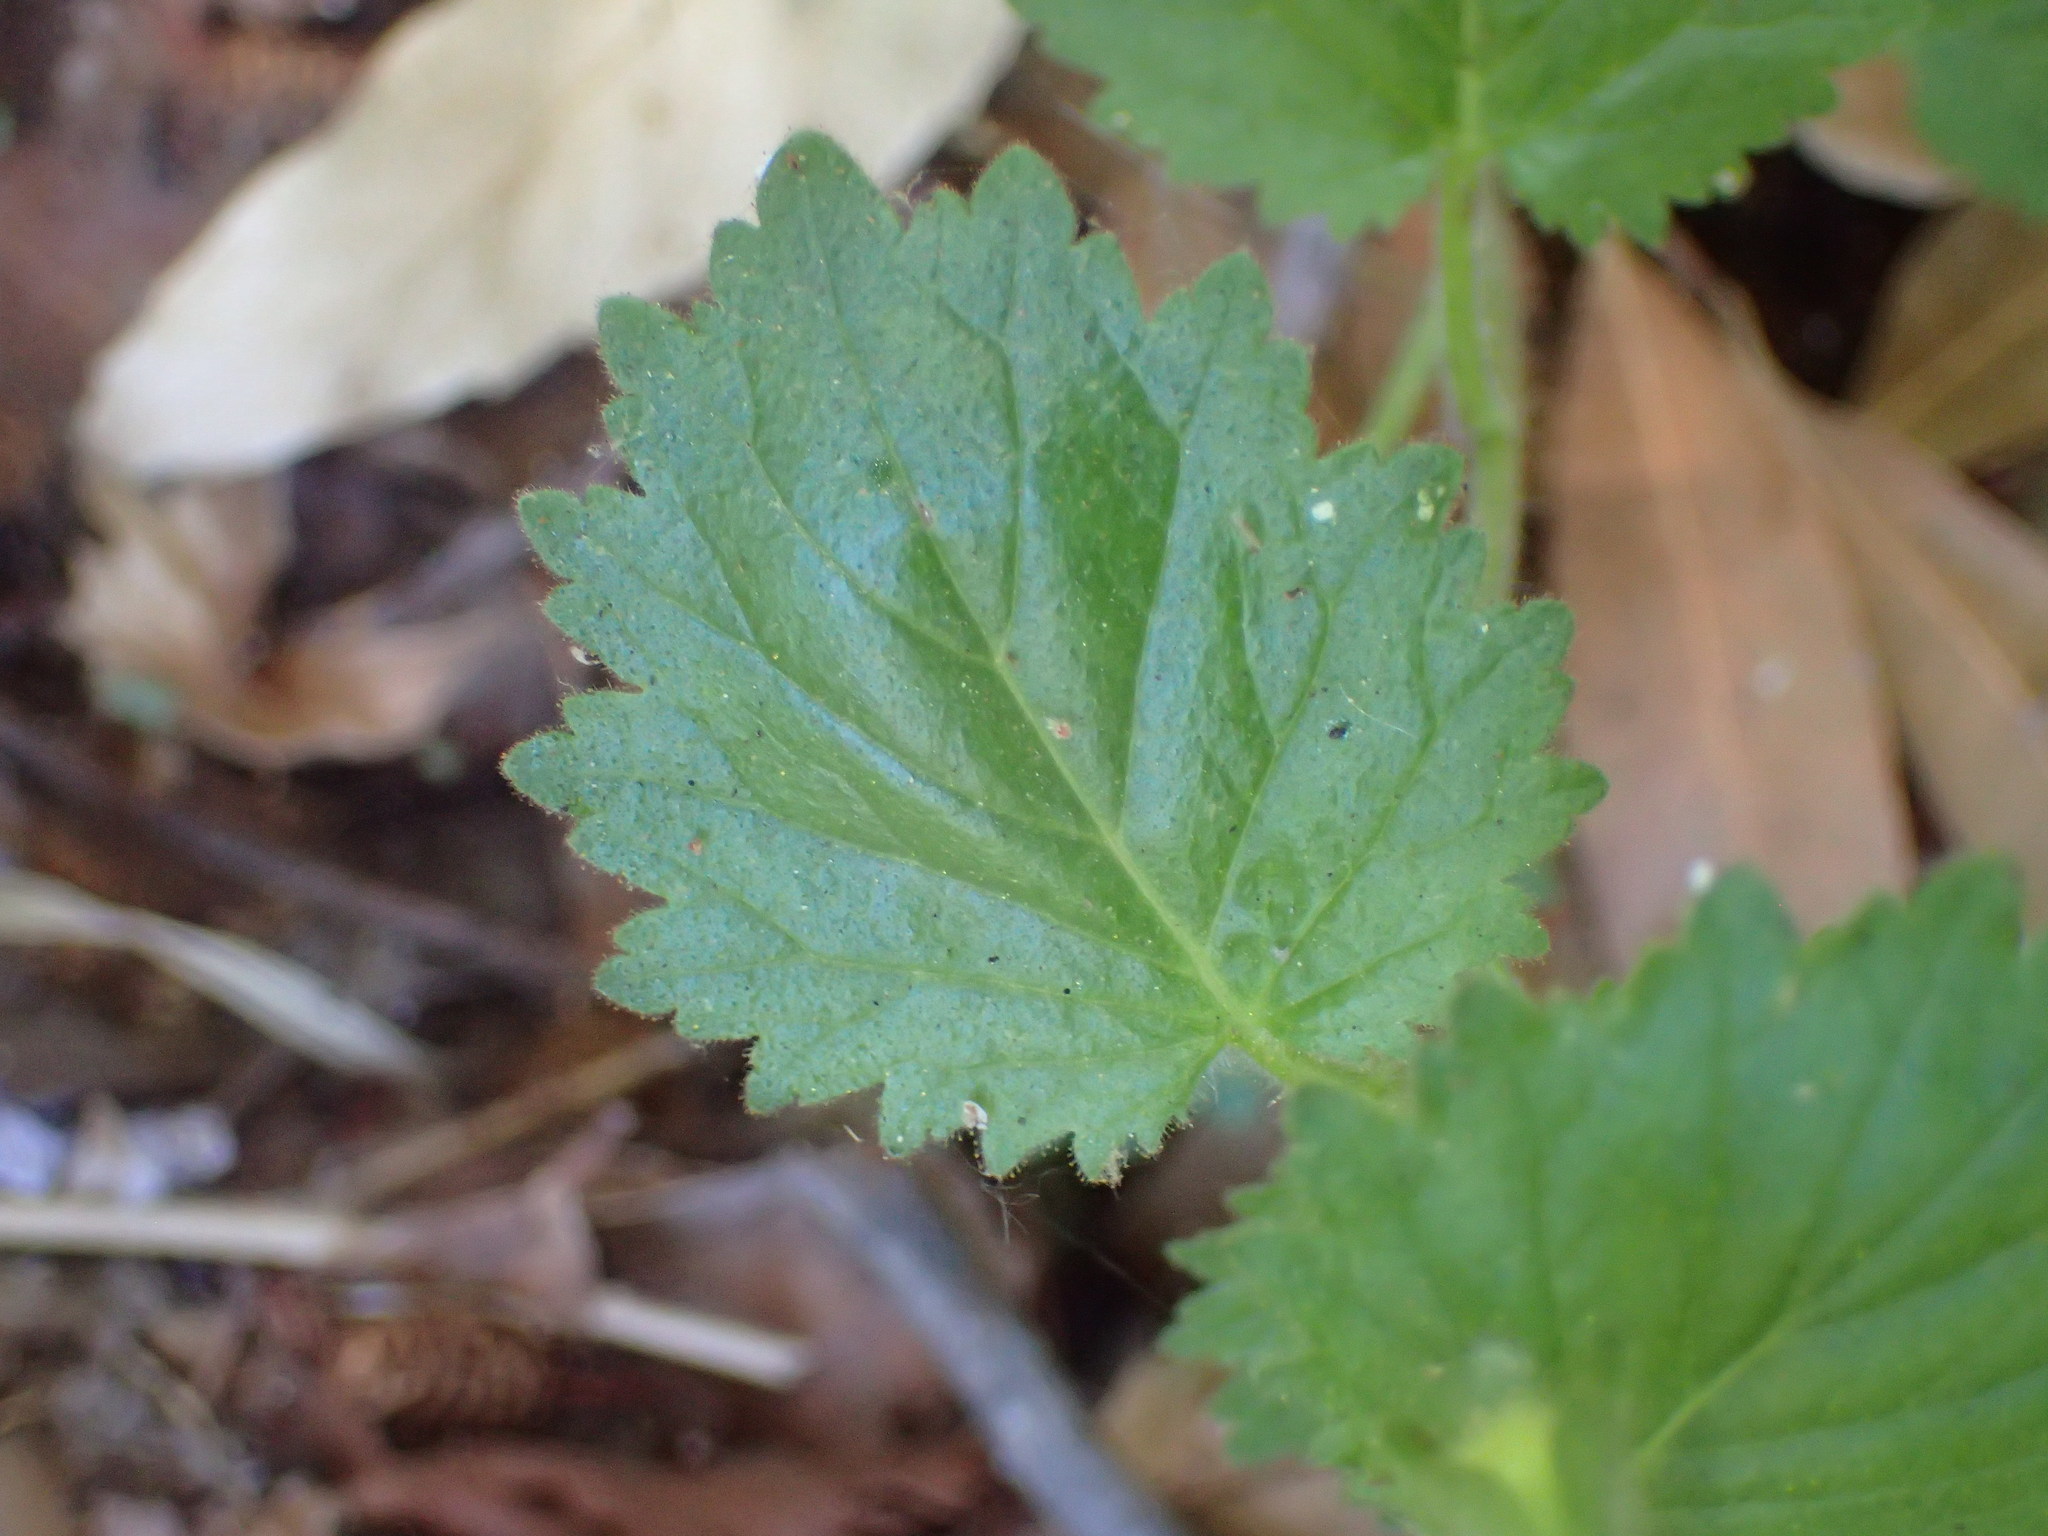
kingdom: Plantae
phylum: Tracheophyta
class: Magnoliopsida
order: Boraginales
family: Hydrophyllaceae
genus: Phacelia
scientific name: Phacelia grandiflora
